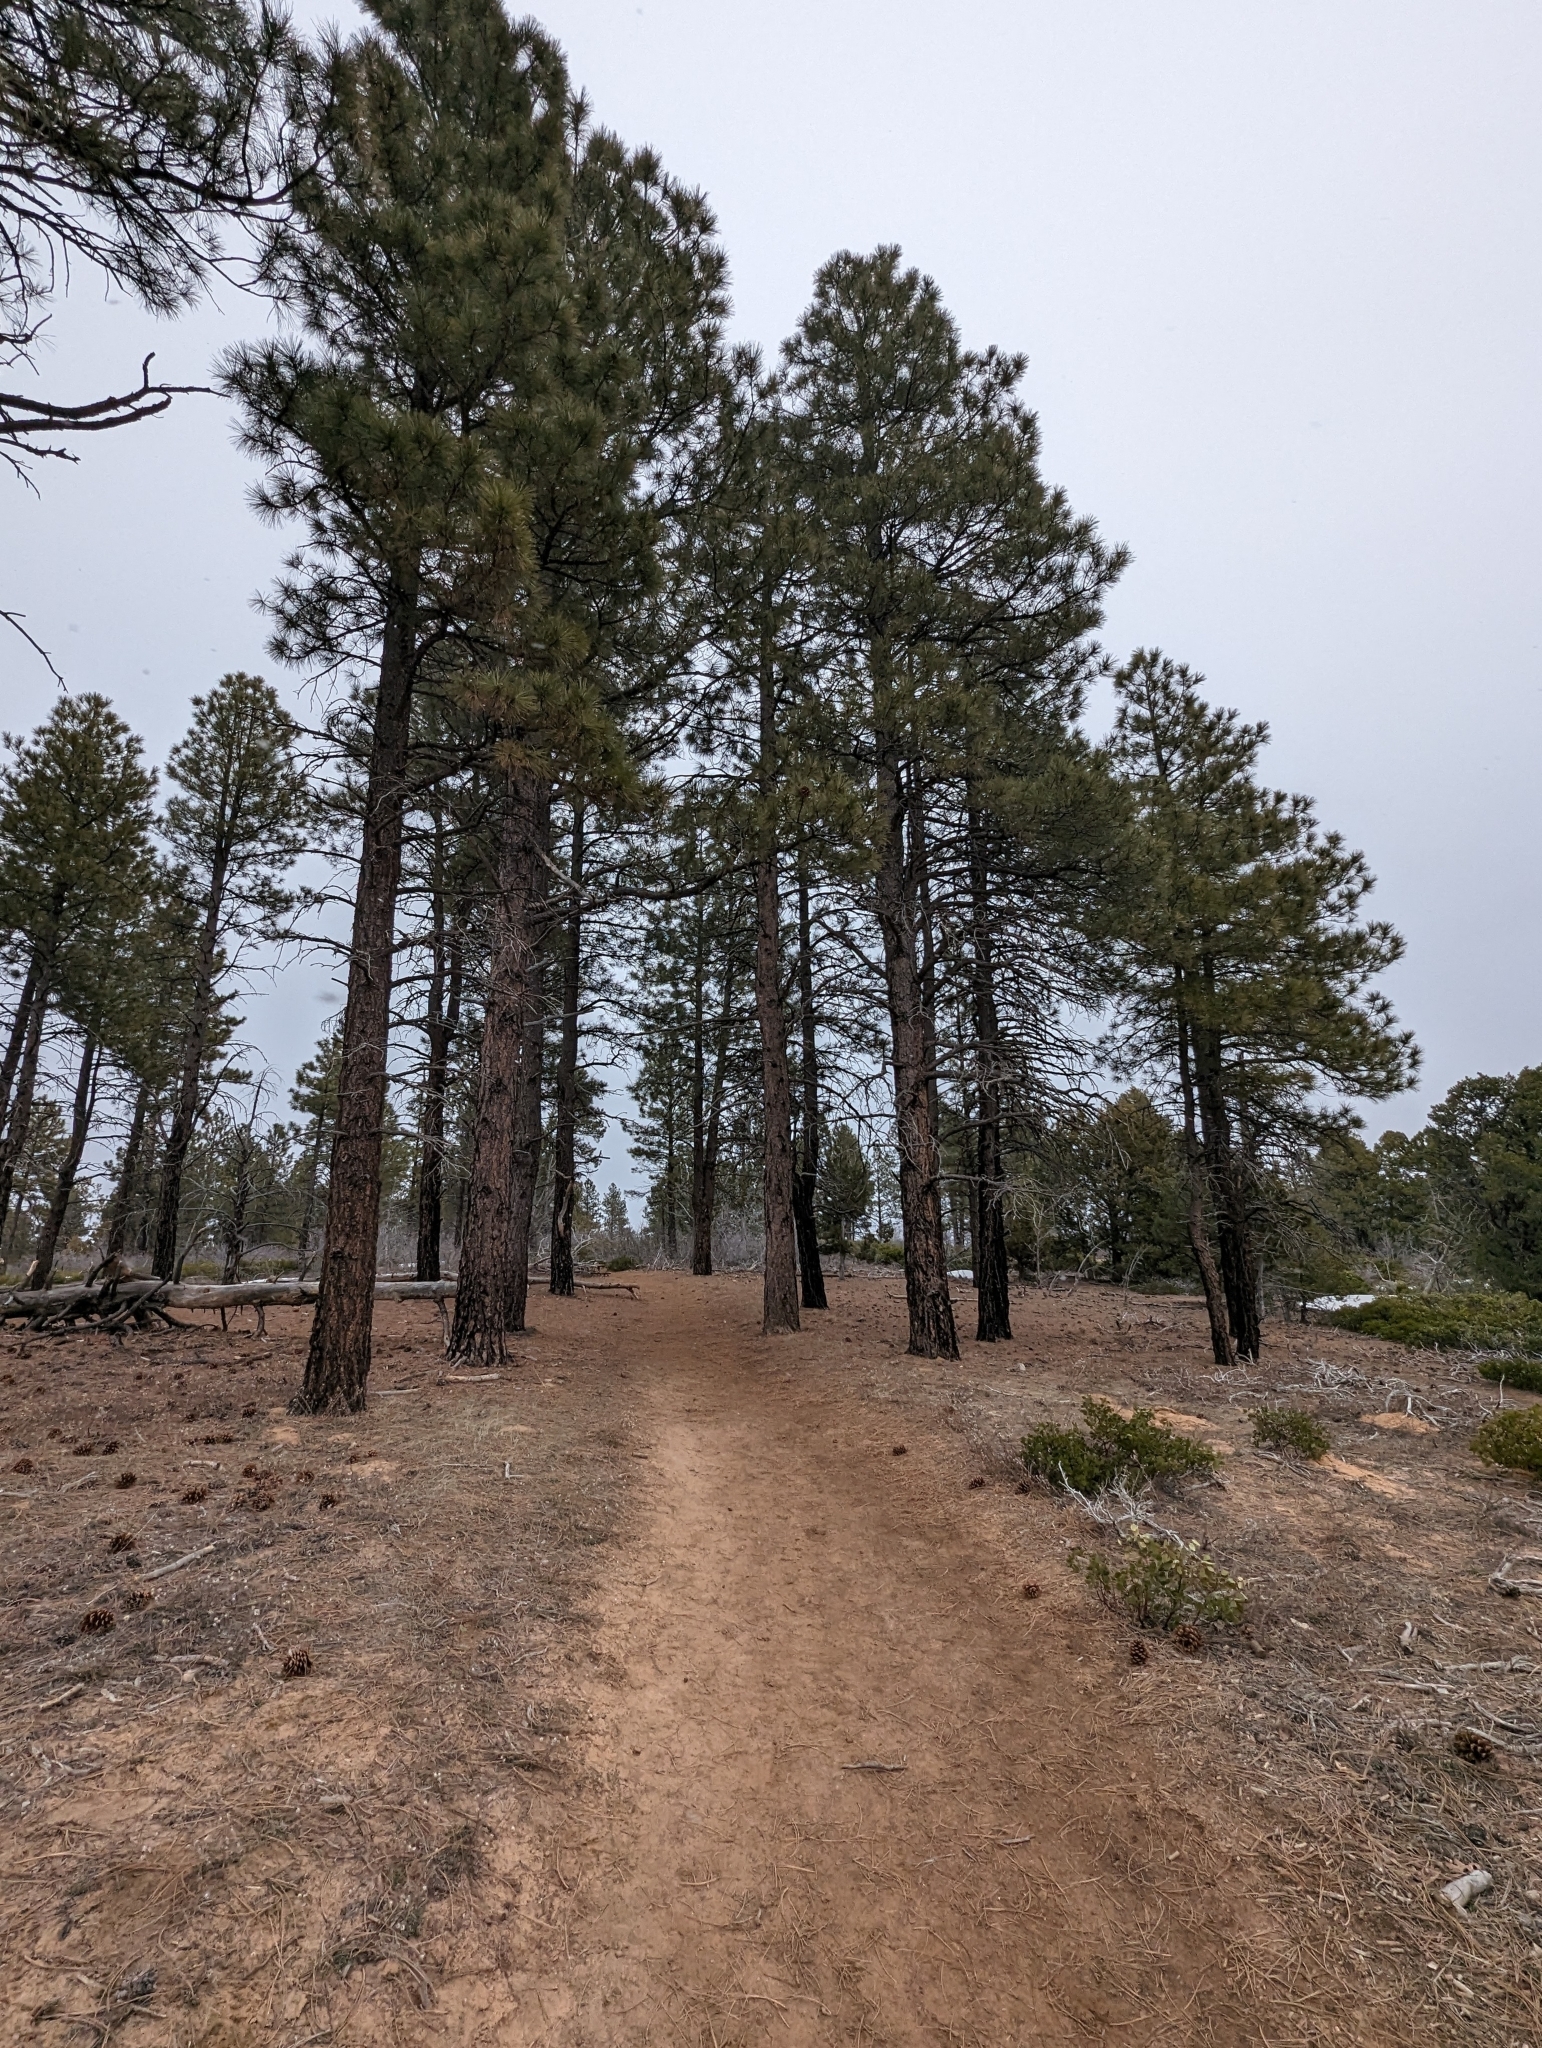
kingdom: Plantae
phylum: Tracheophyta
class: Pinopsida
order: Pinales
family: Pinaceae
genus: Pinus
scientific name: Pinus ponderosa
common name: Western yellow-pine
